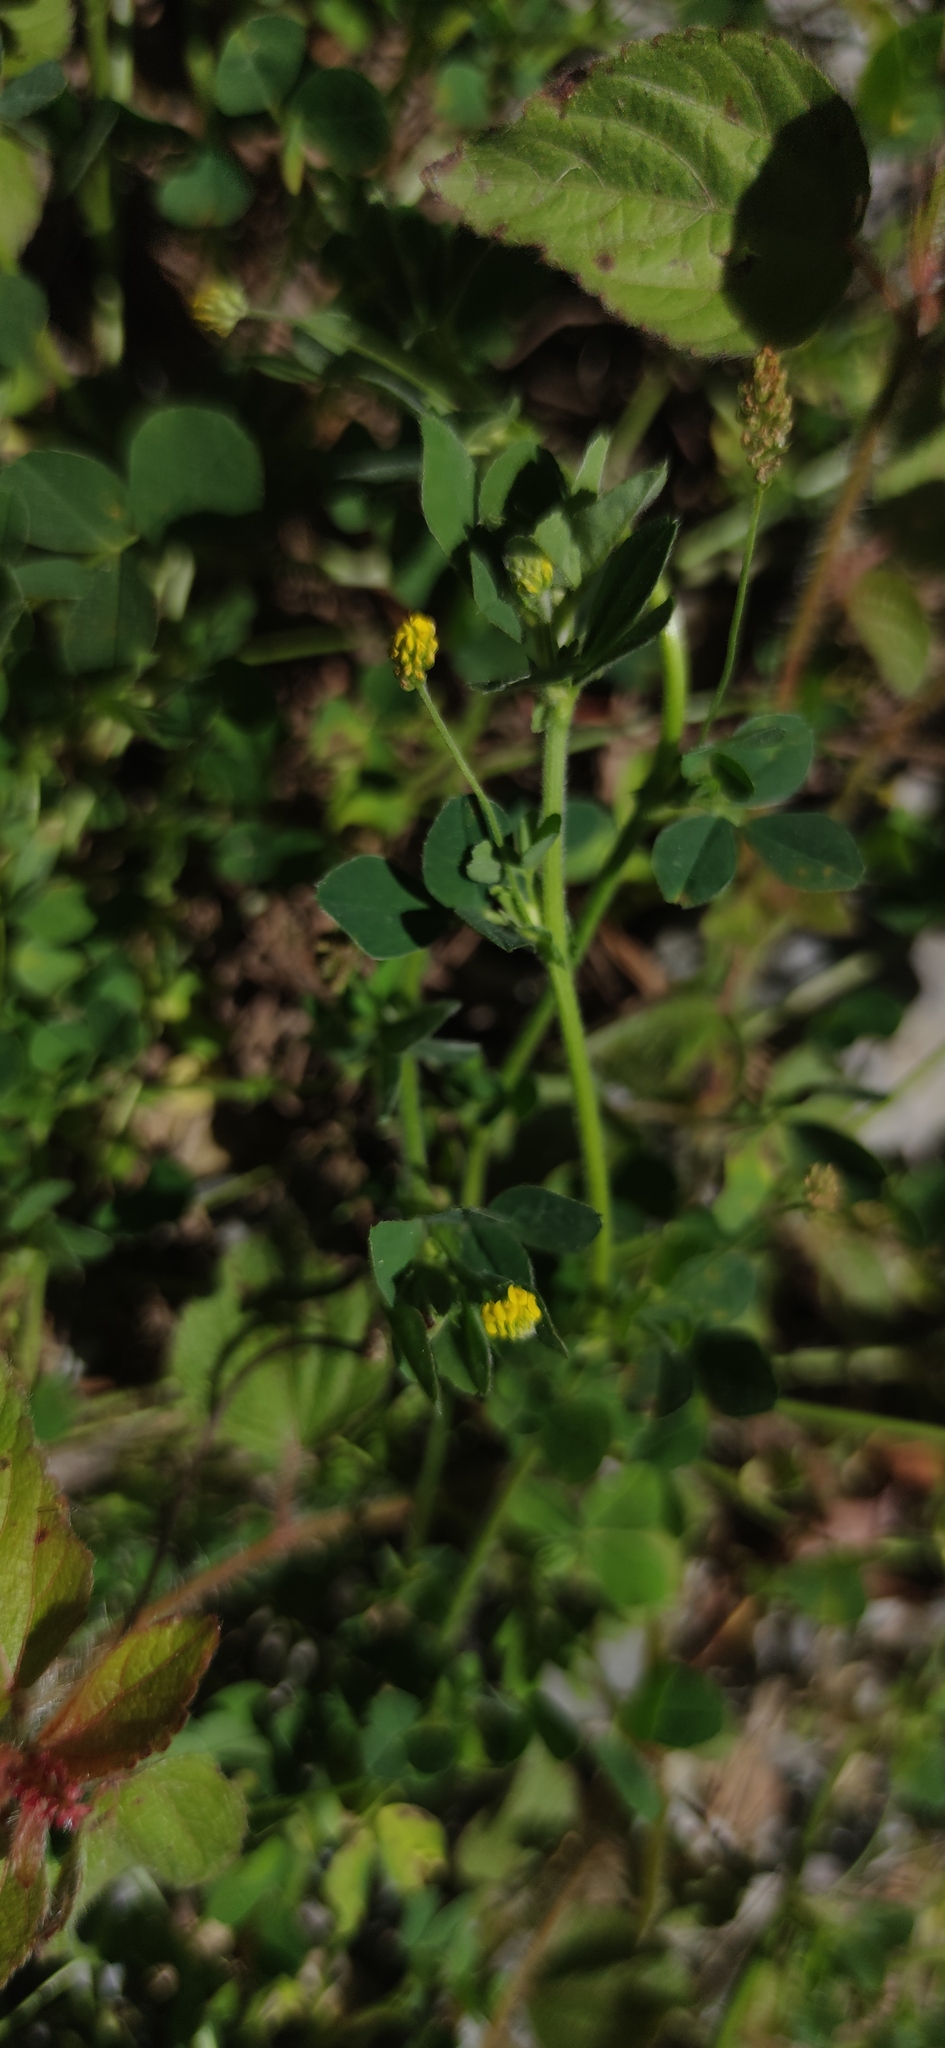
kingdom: Plantae
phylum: Tracheophyta
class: Magnoliopsida
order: Fabales
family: Fabaceae
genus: Medicago
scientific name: Medicago lupulina
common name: Black medick
